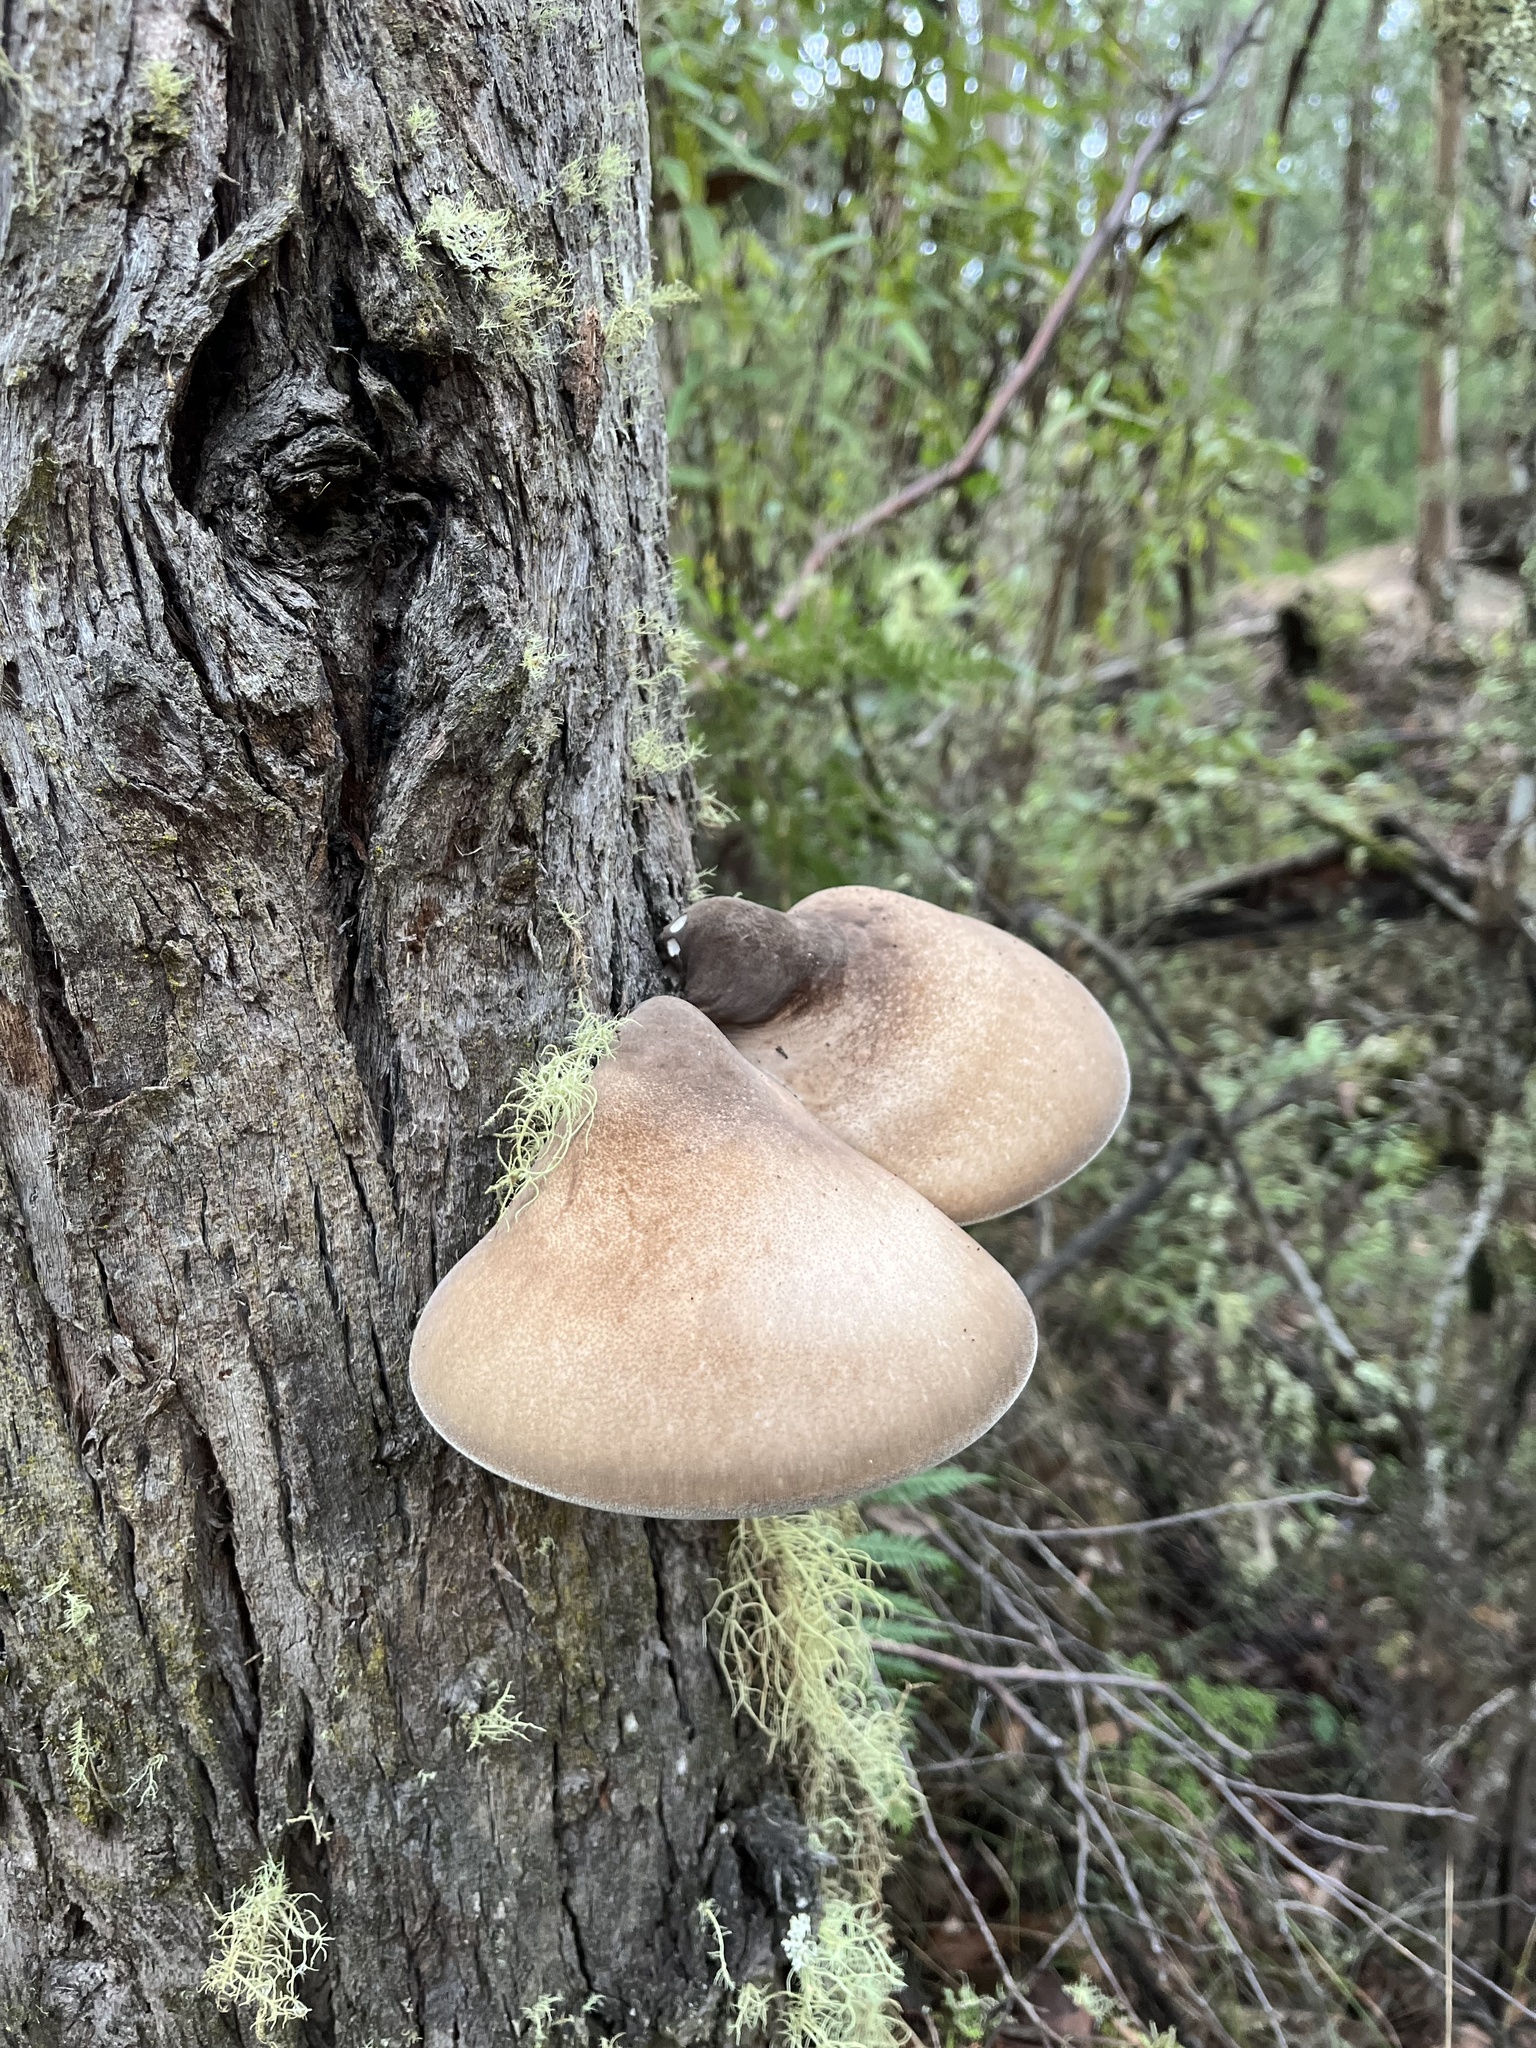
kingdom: Fungi
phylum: Basidiomycota
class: Agaricomycetes
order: Polyporales
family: Laetiporaceae
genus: Laetiporus
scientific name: Laetiporus portentosus
